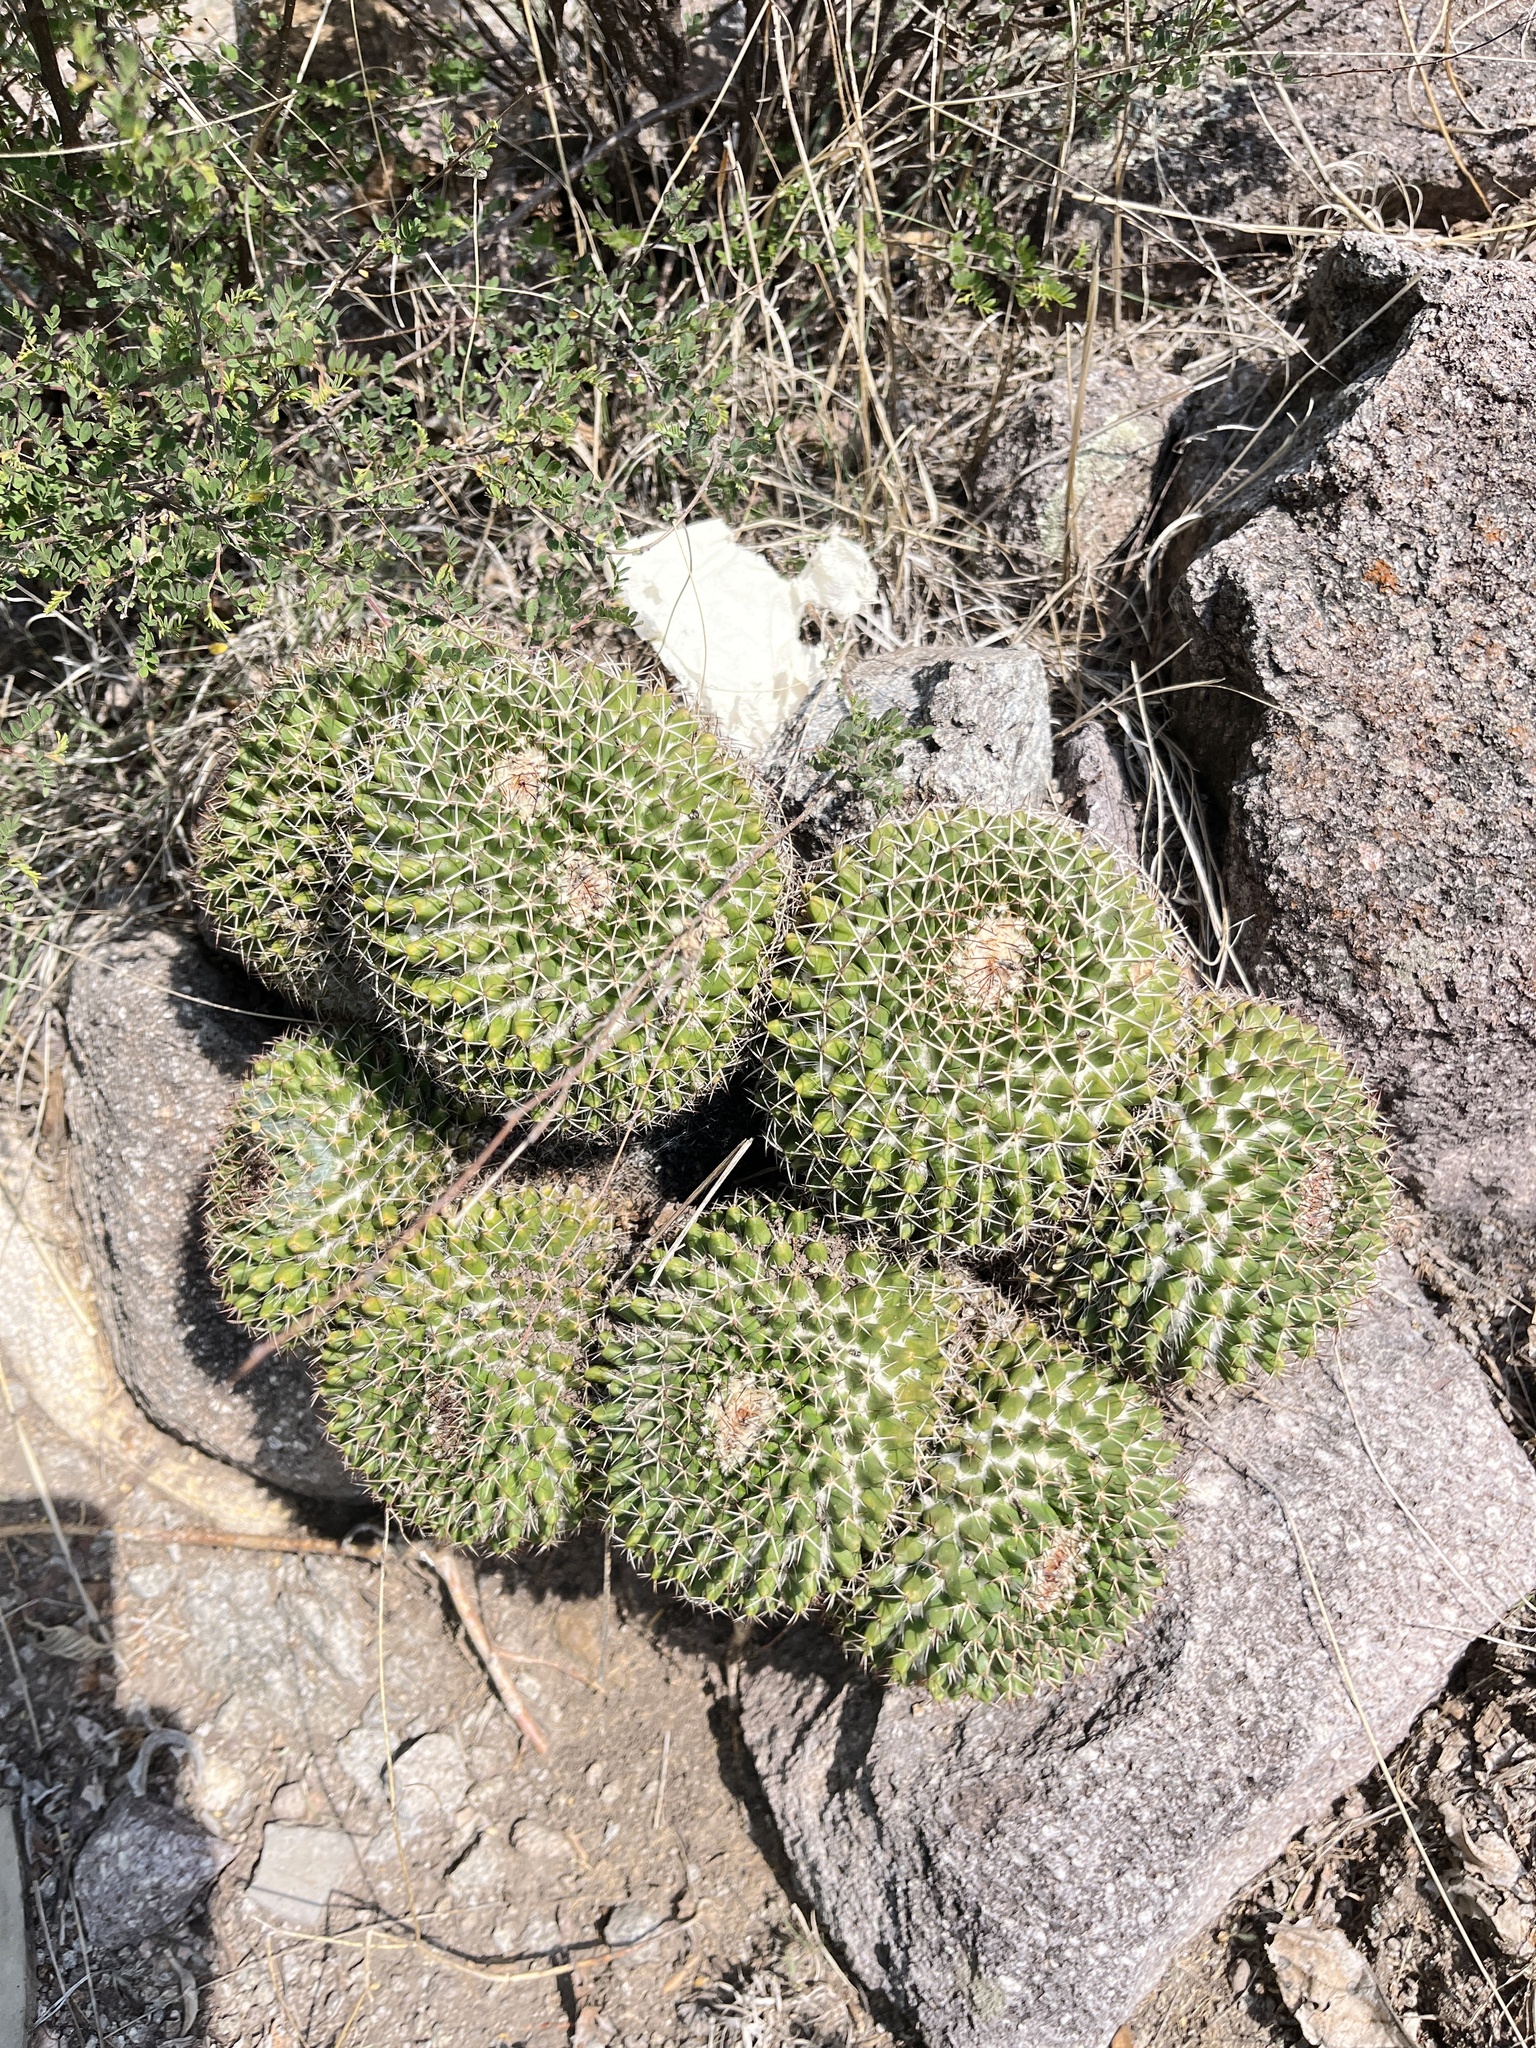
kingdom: Plantae
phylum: Tracheophyta
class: Magnoliopsida
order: Caryophyllales
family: Cactaceae
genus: Mammillaria
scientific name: Mammillaria karwinskiana
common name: Royal cross
